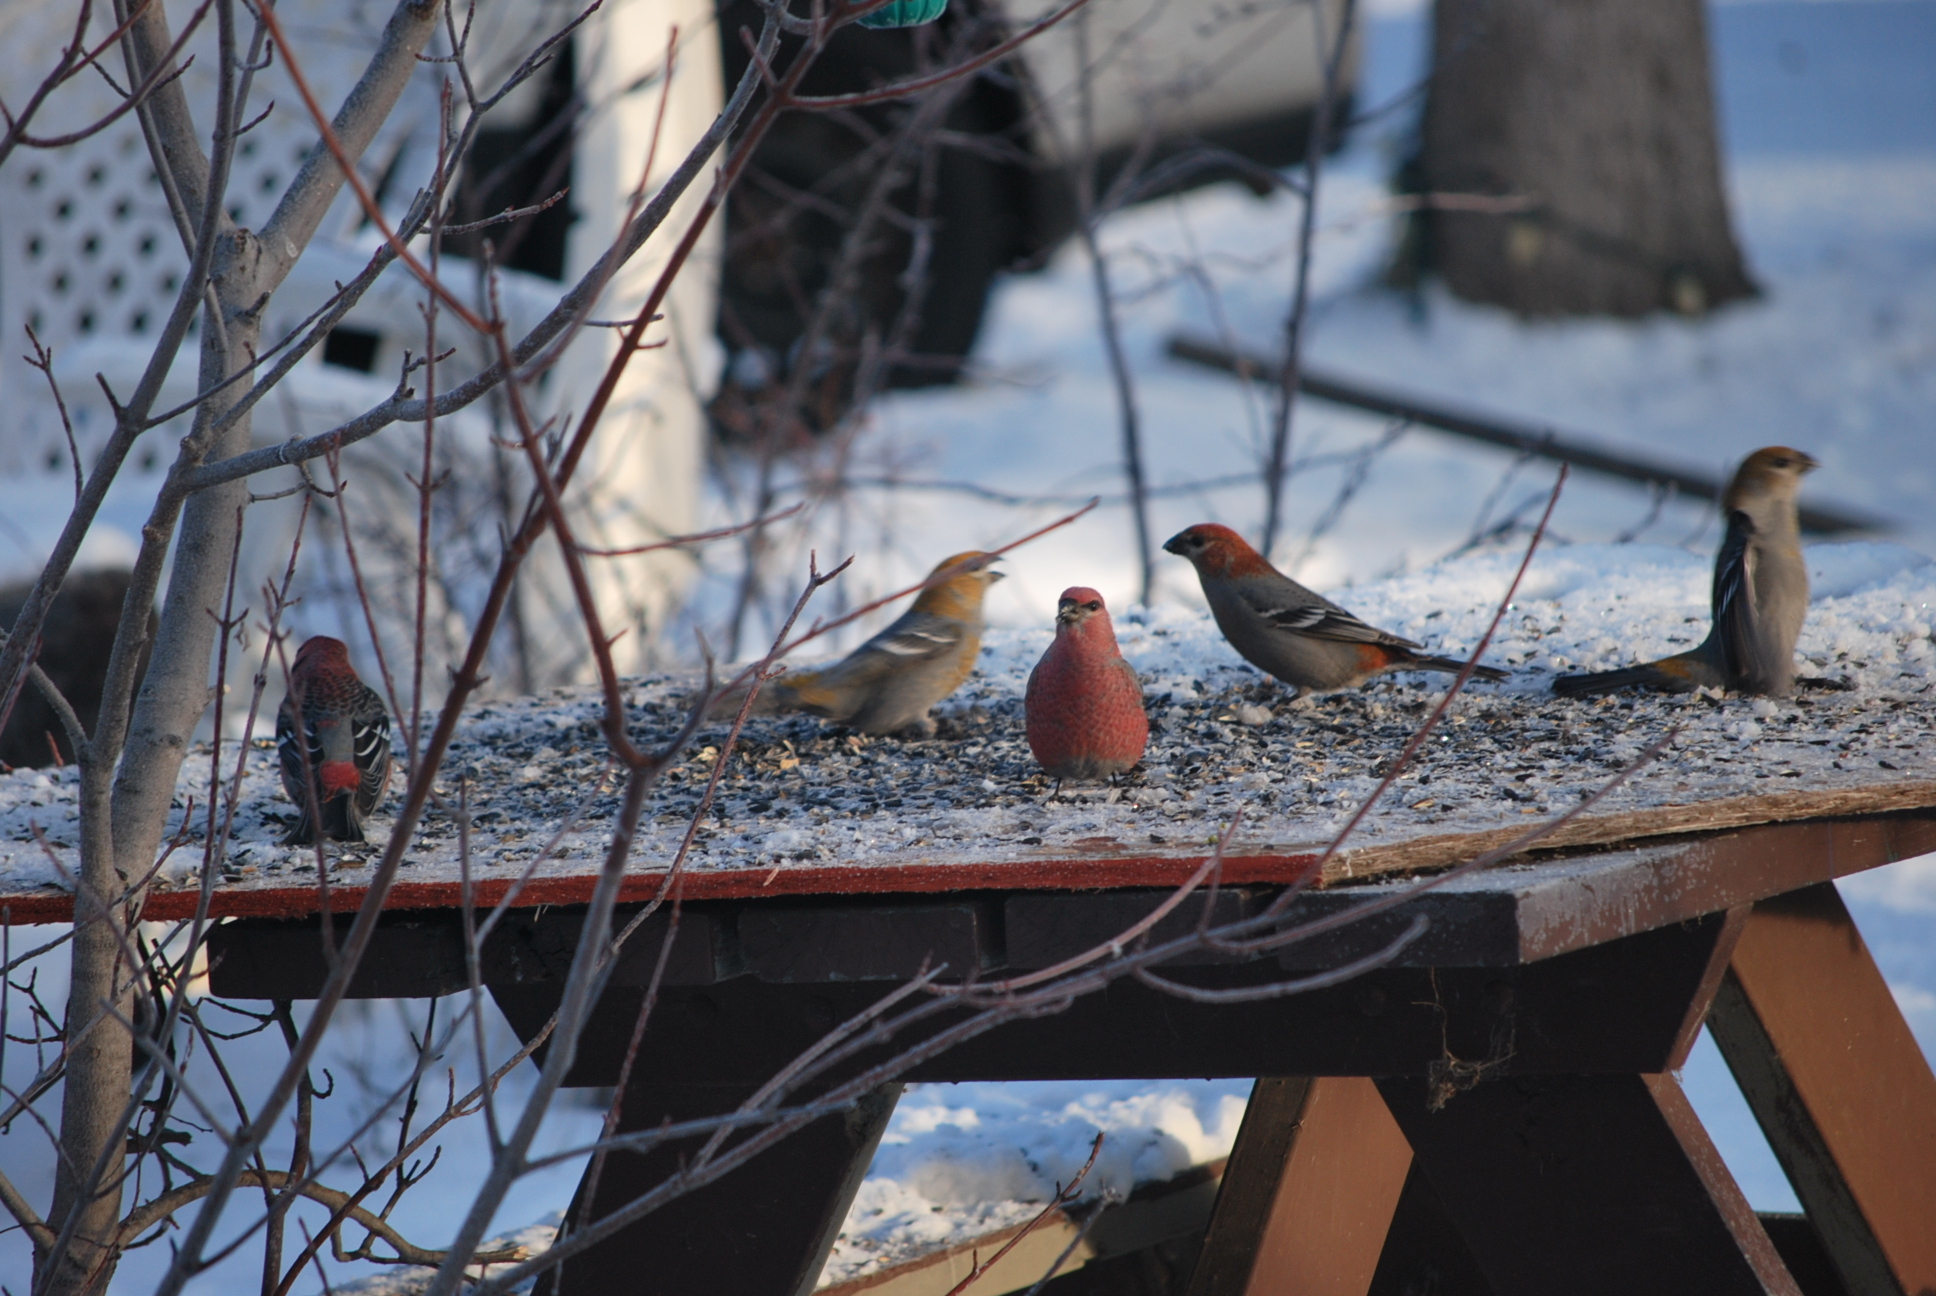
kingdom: Animalia
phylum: Chordata
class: Aves
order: Passeriformes
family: Fringillidae
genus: Pinicola
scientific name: Pinicola enucleator
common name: Pine grosbeak
